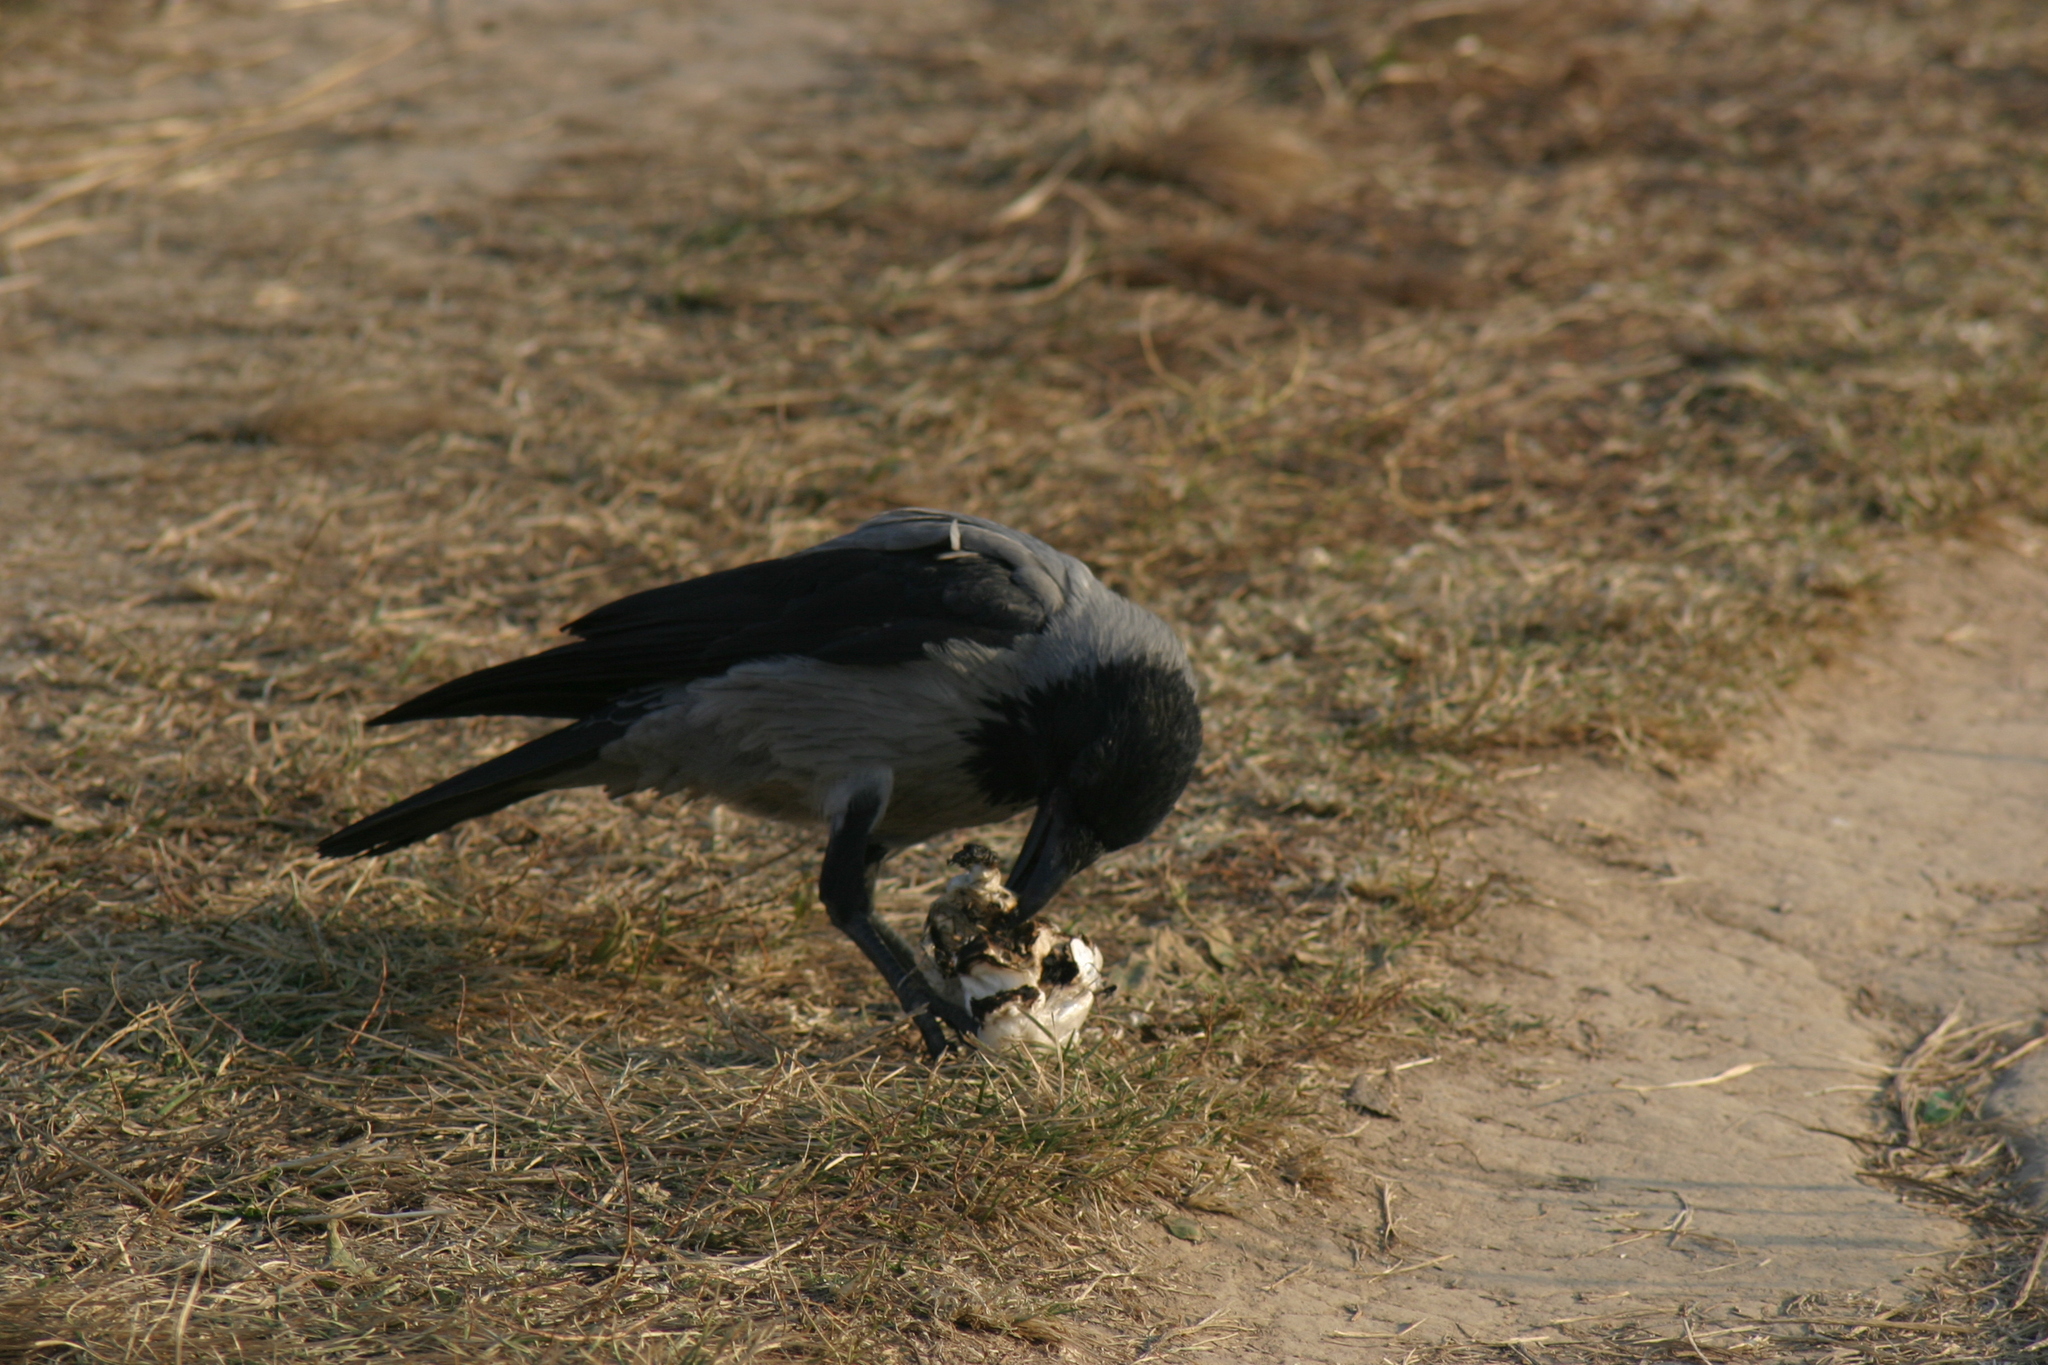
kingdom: Animalia
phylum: Chordata
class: Aves
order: Passeriformes
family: Corvidae
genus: Corvus
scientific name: Corvus cornix
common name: Hooded crow
